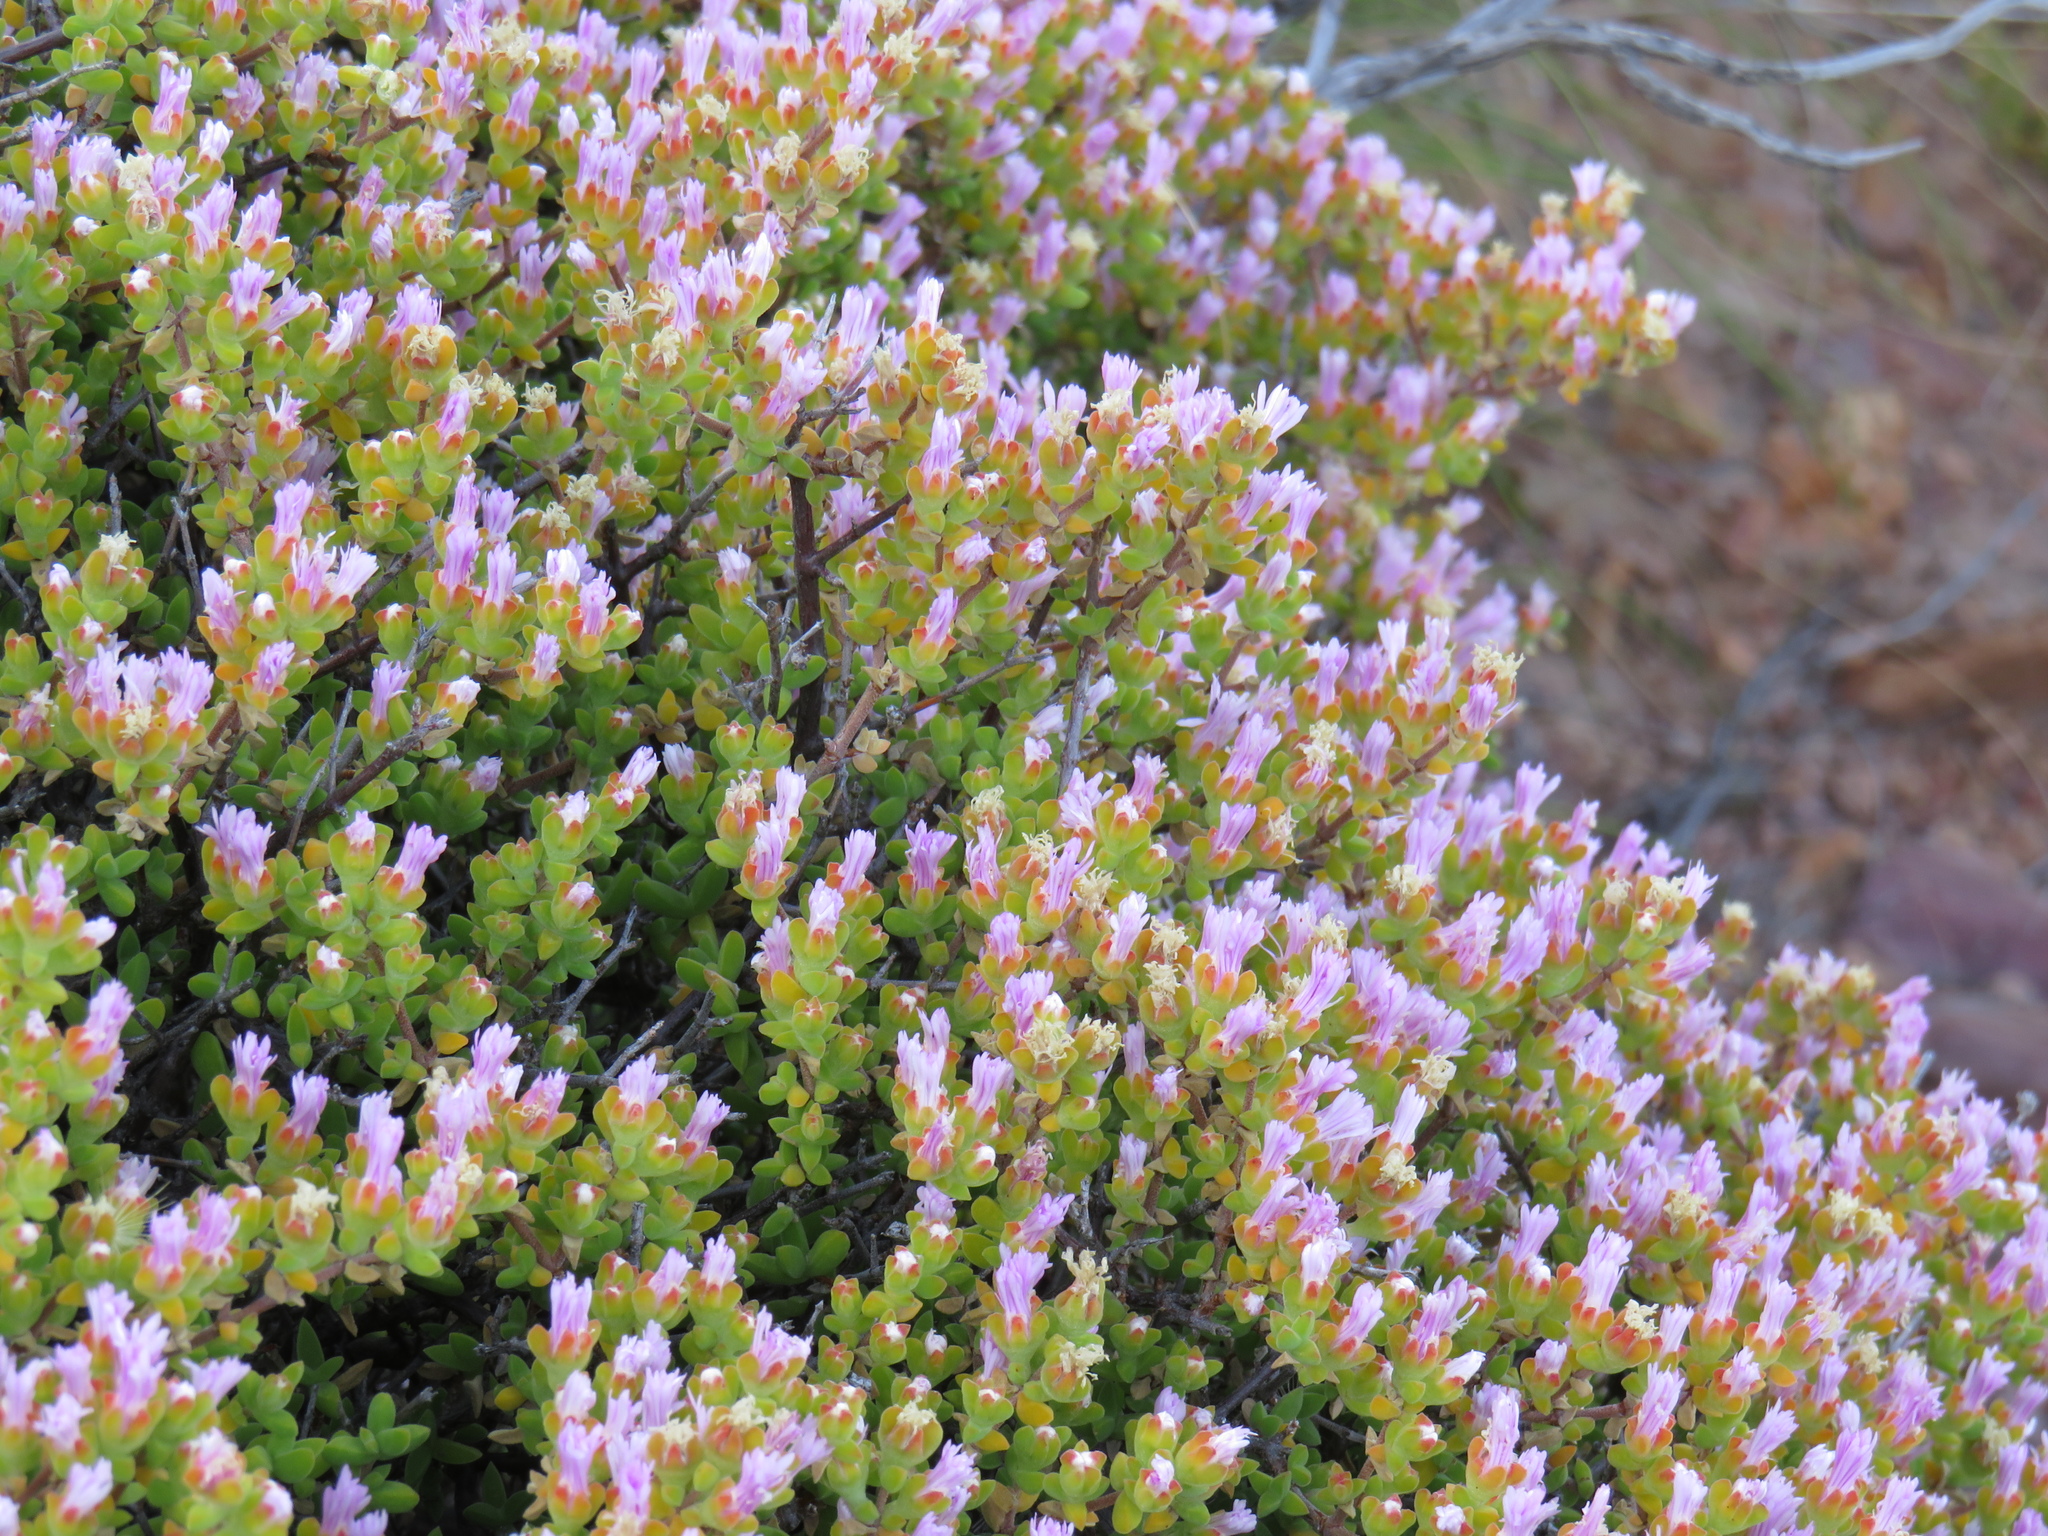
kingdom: Plantae
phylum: Tracheophyta
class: Magnoliopsida
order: Caryophyllales
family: Aizoaceae
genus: Delosperma
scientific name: Delosperma asperulum
